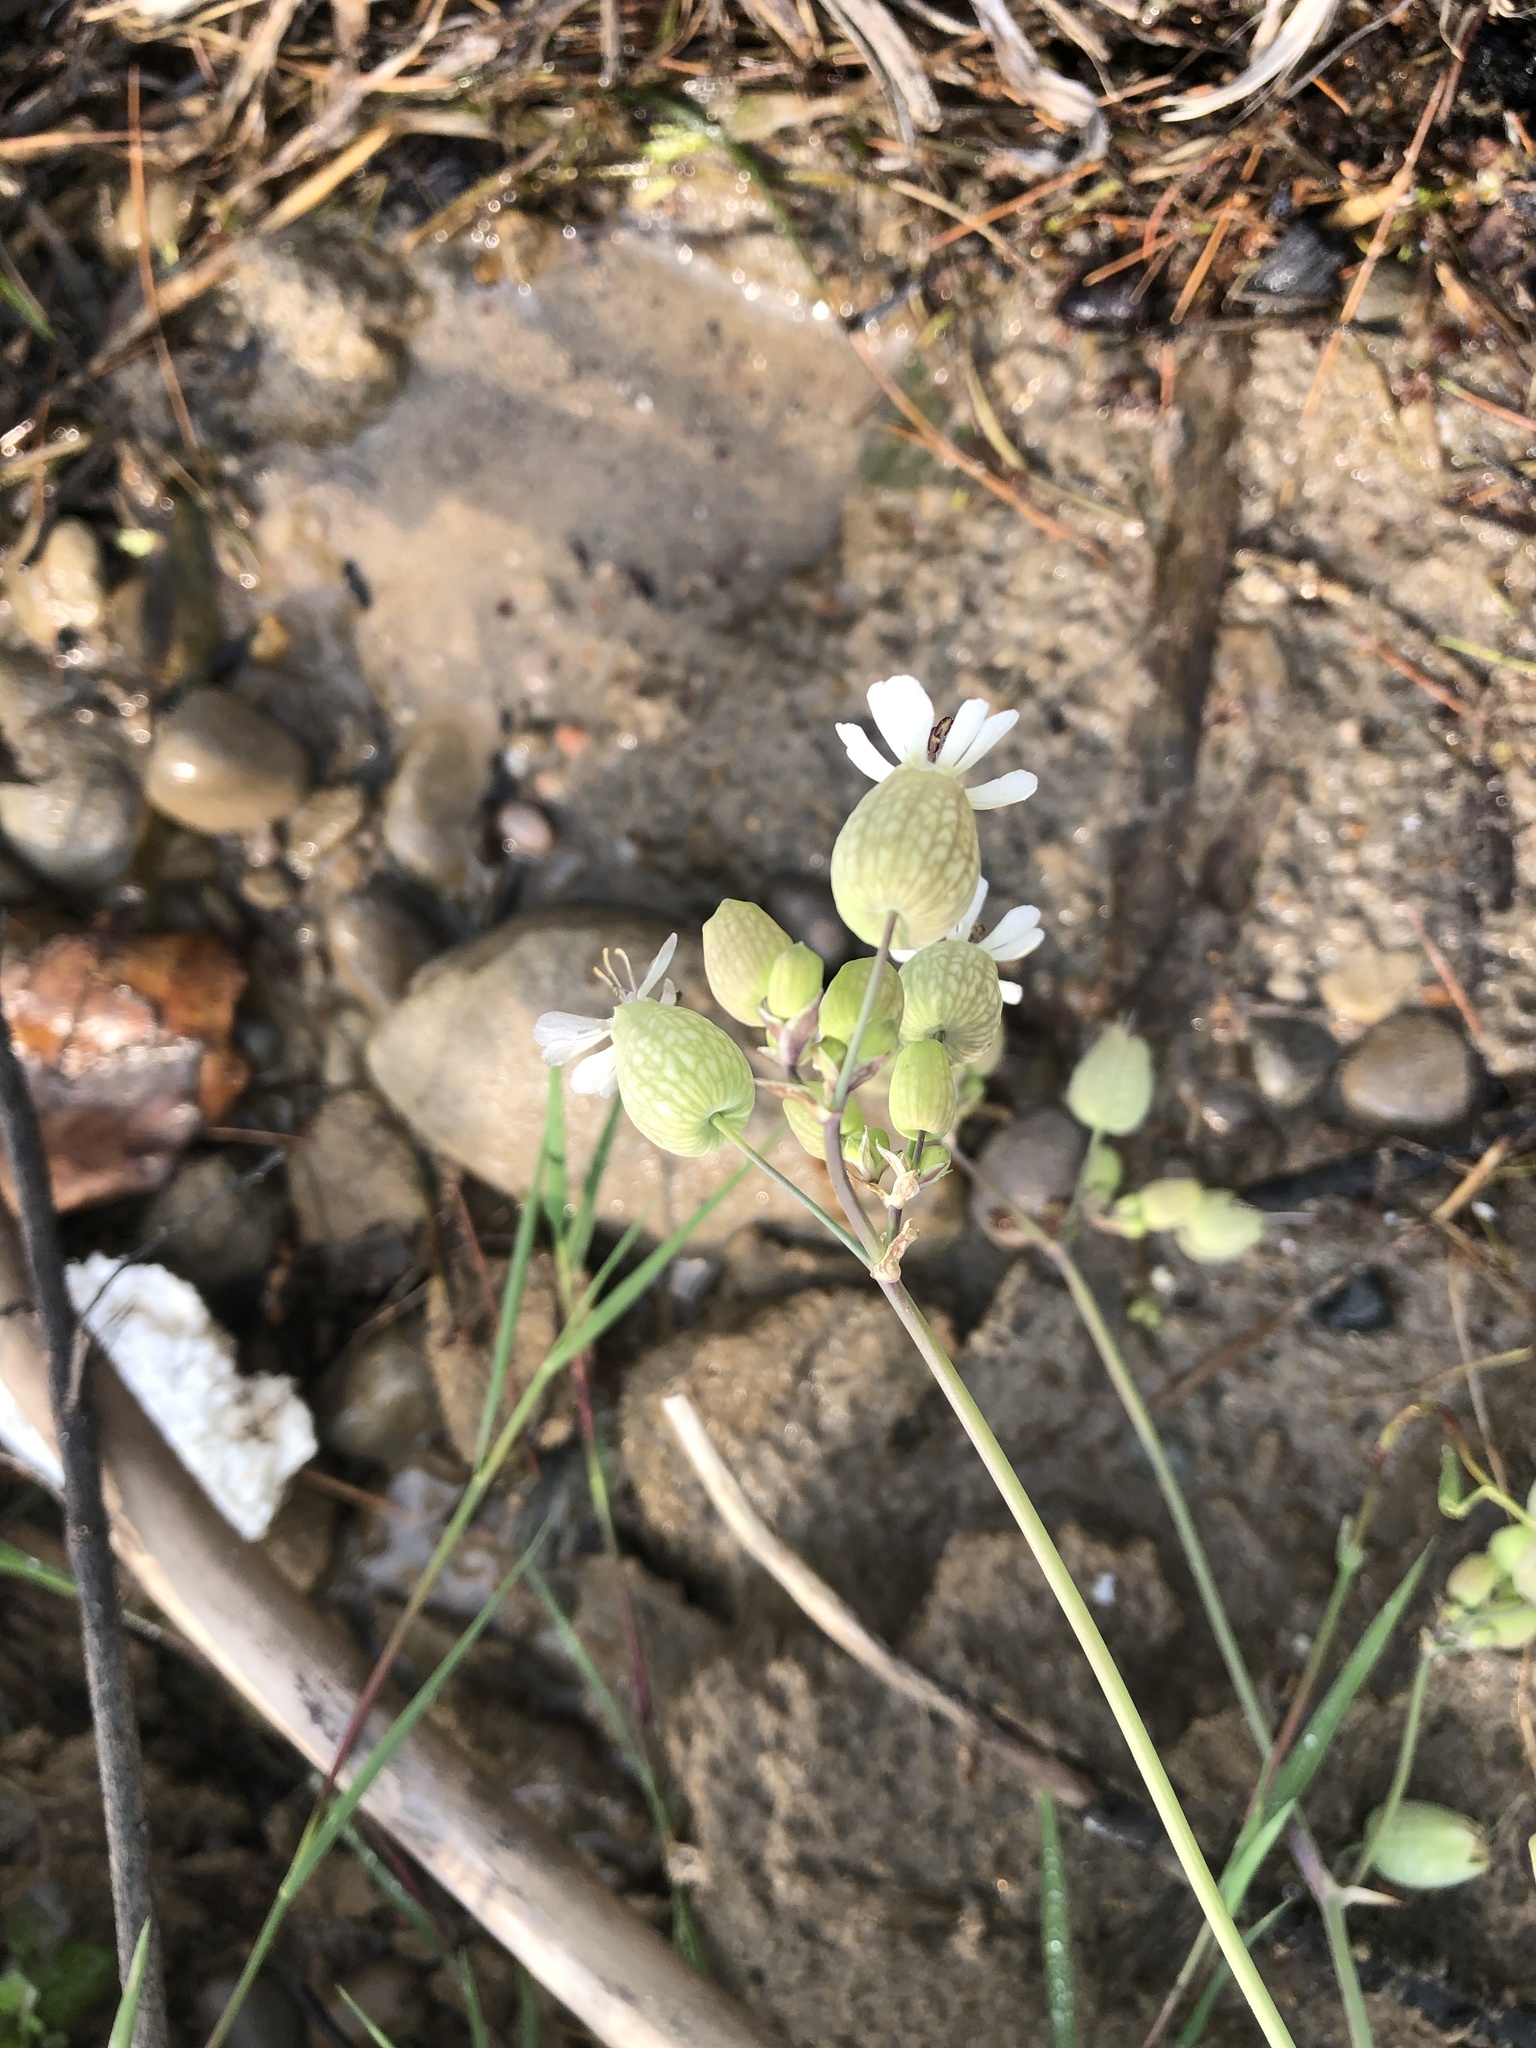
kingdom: Plantae
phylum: Tracheophyta
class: Magnoliopsida
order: Caryophyllales
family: Caryophyllaceae
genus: Silene
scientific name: Silene vulgaris
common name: Bladder campion
